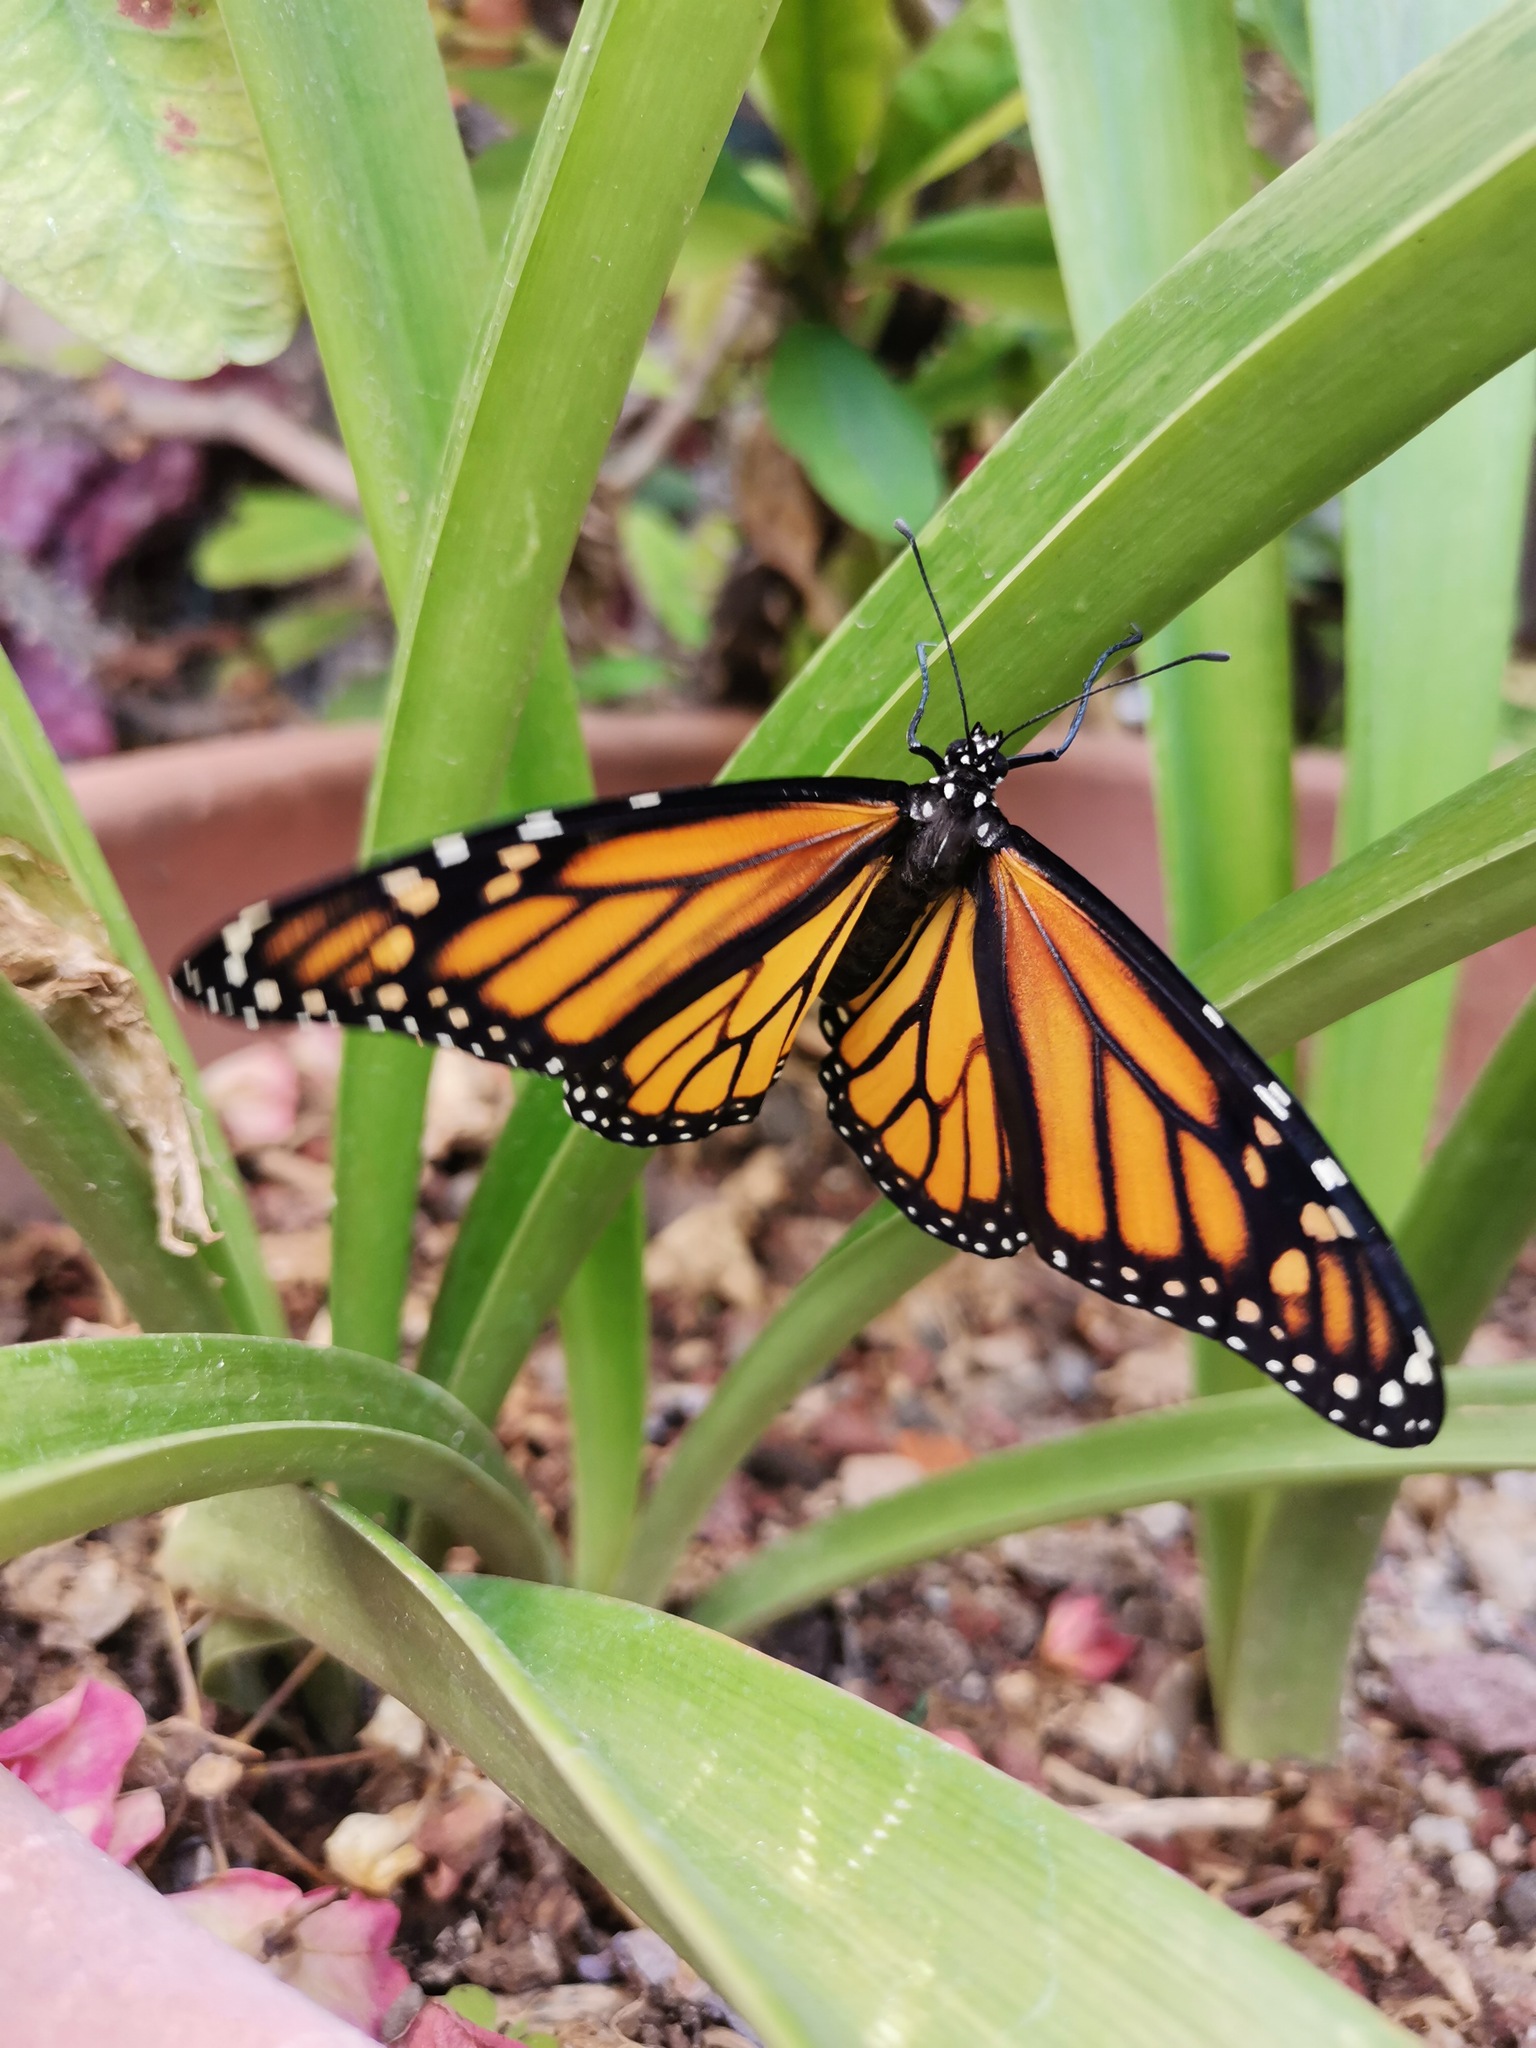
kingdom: Animalia
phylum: Arthropoda
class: Insecta
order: Lepidoptera
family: Nymphalidae
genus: Danaus
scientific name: Danaus plexippus
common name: Monarch
